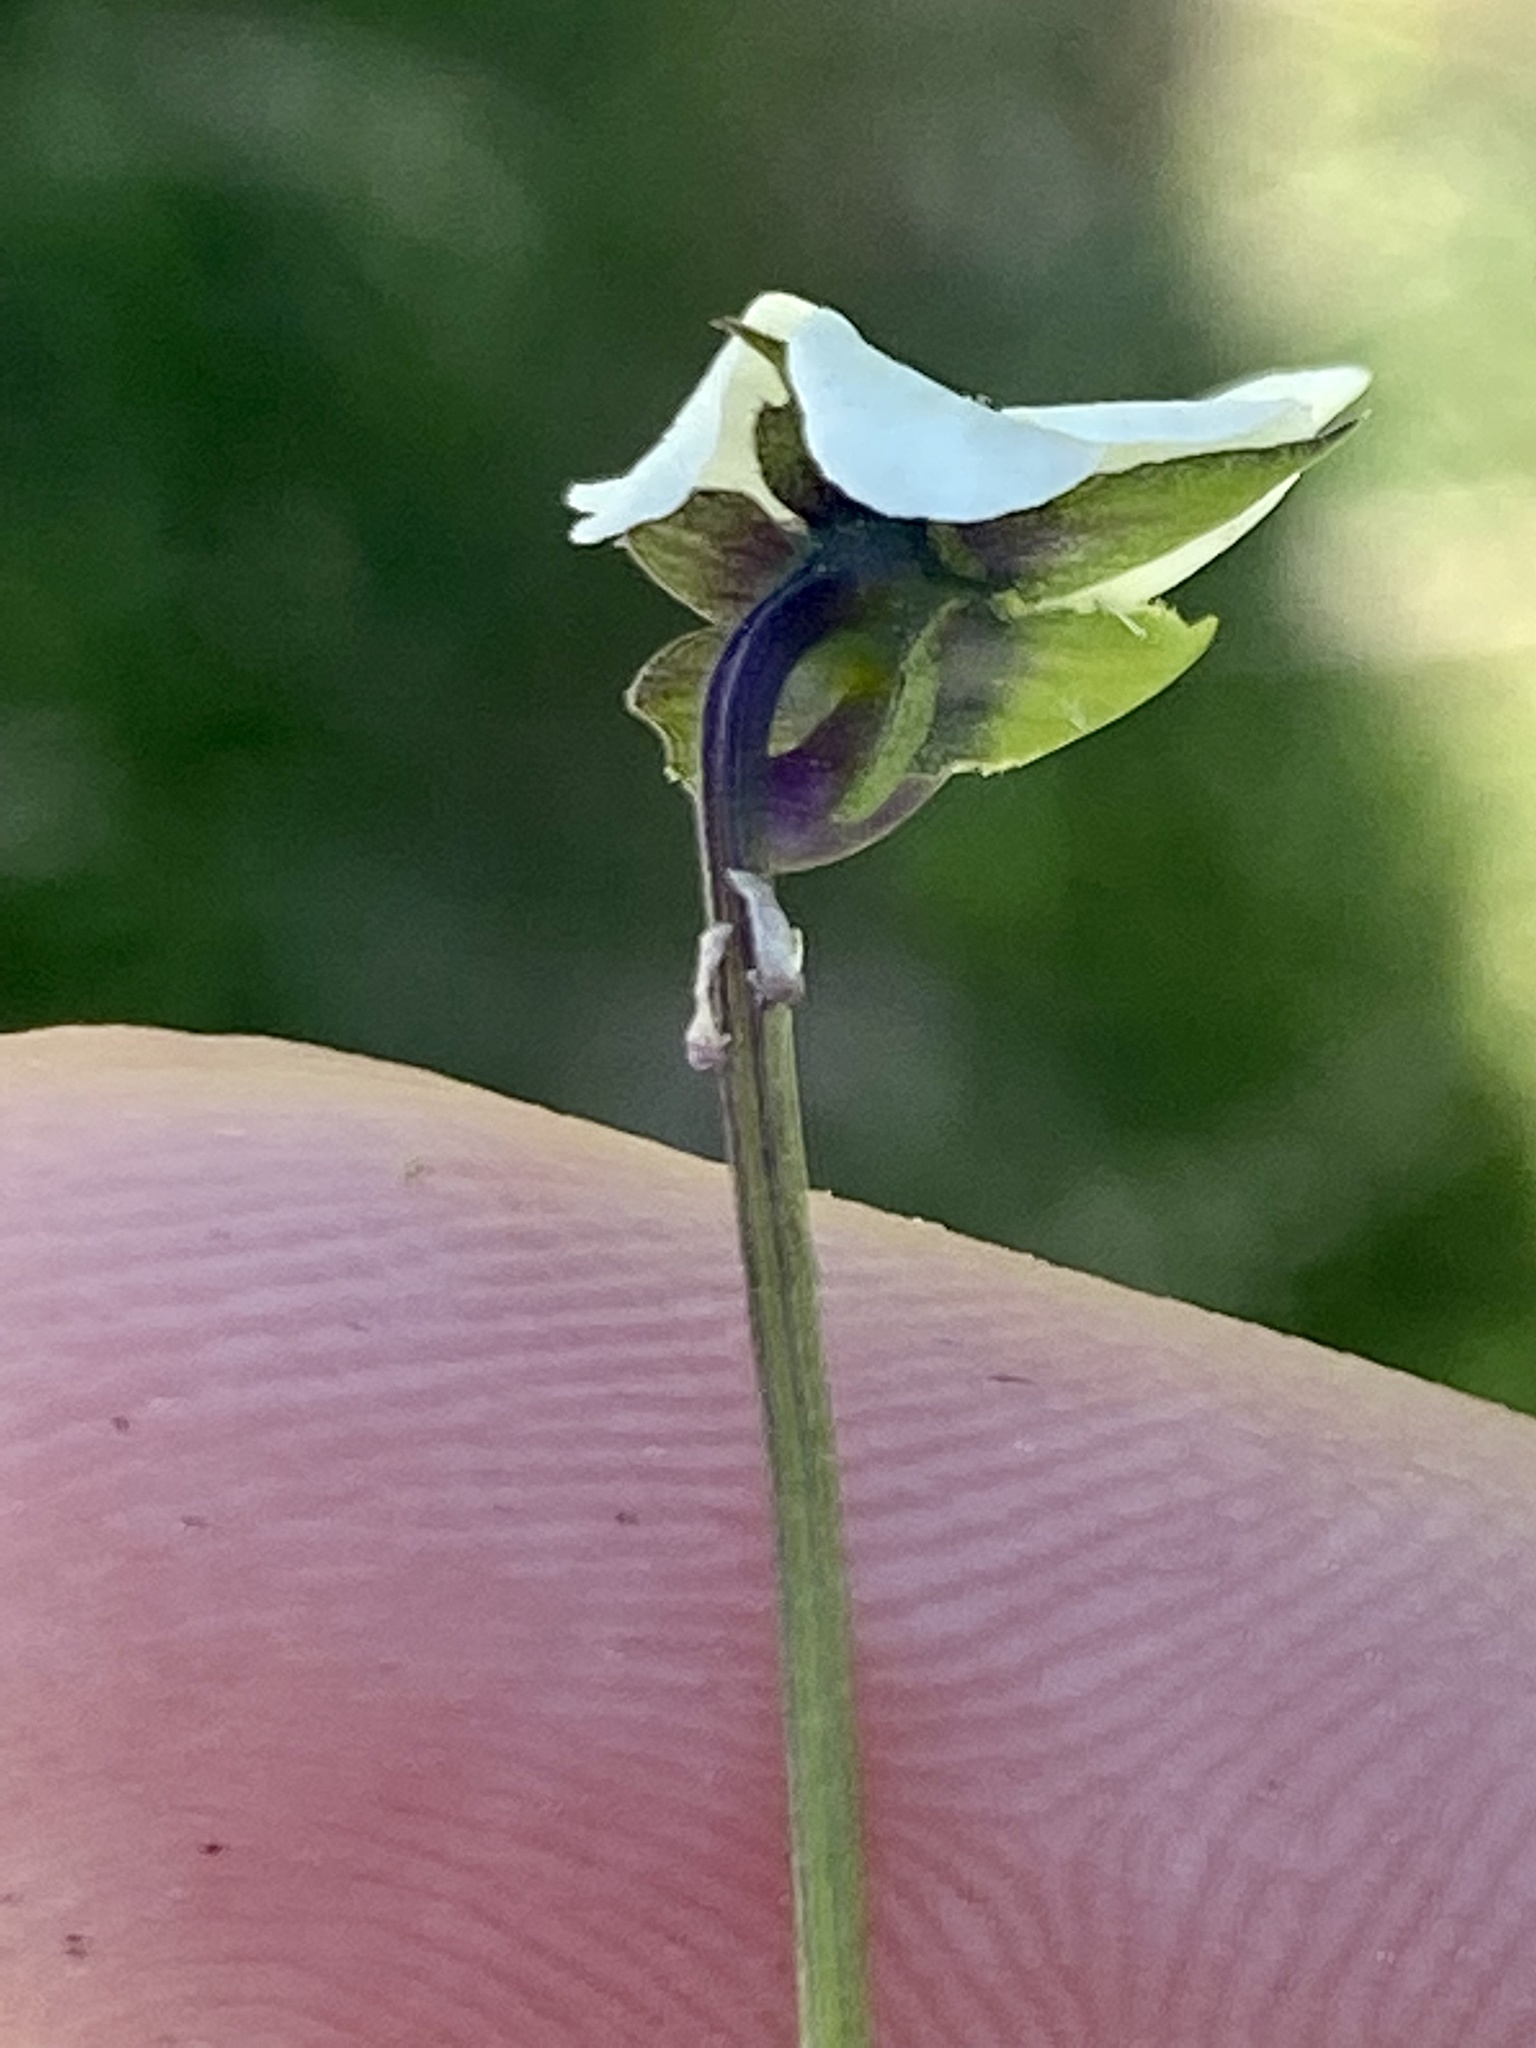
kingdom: Plantae
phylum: Tracheophyta
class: Magnoliopsida
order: Malpighiales
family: Violaceae
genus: Viola
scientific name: Viola arvensis
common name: Field pansy
